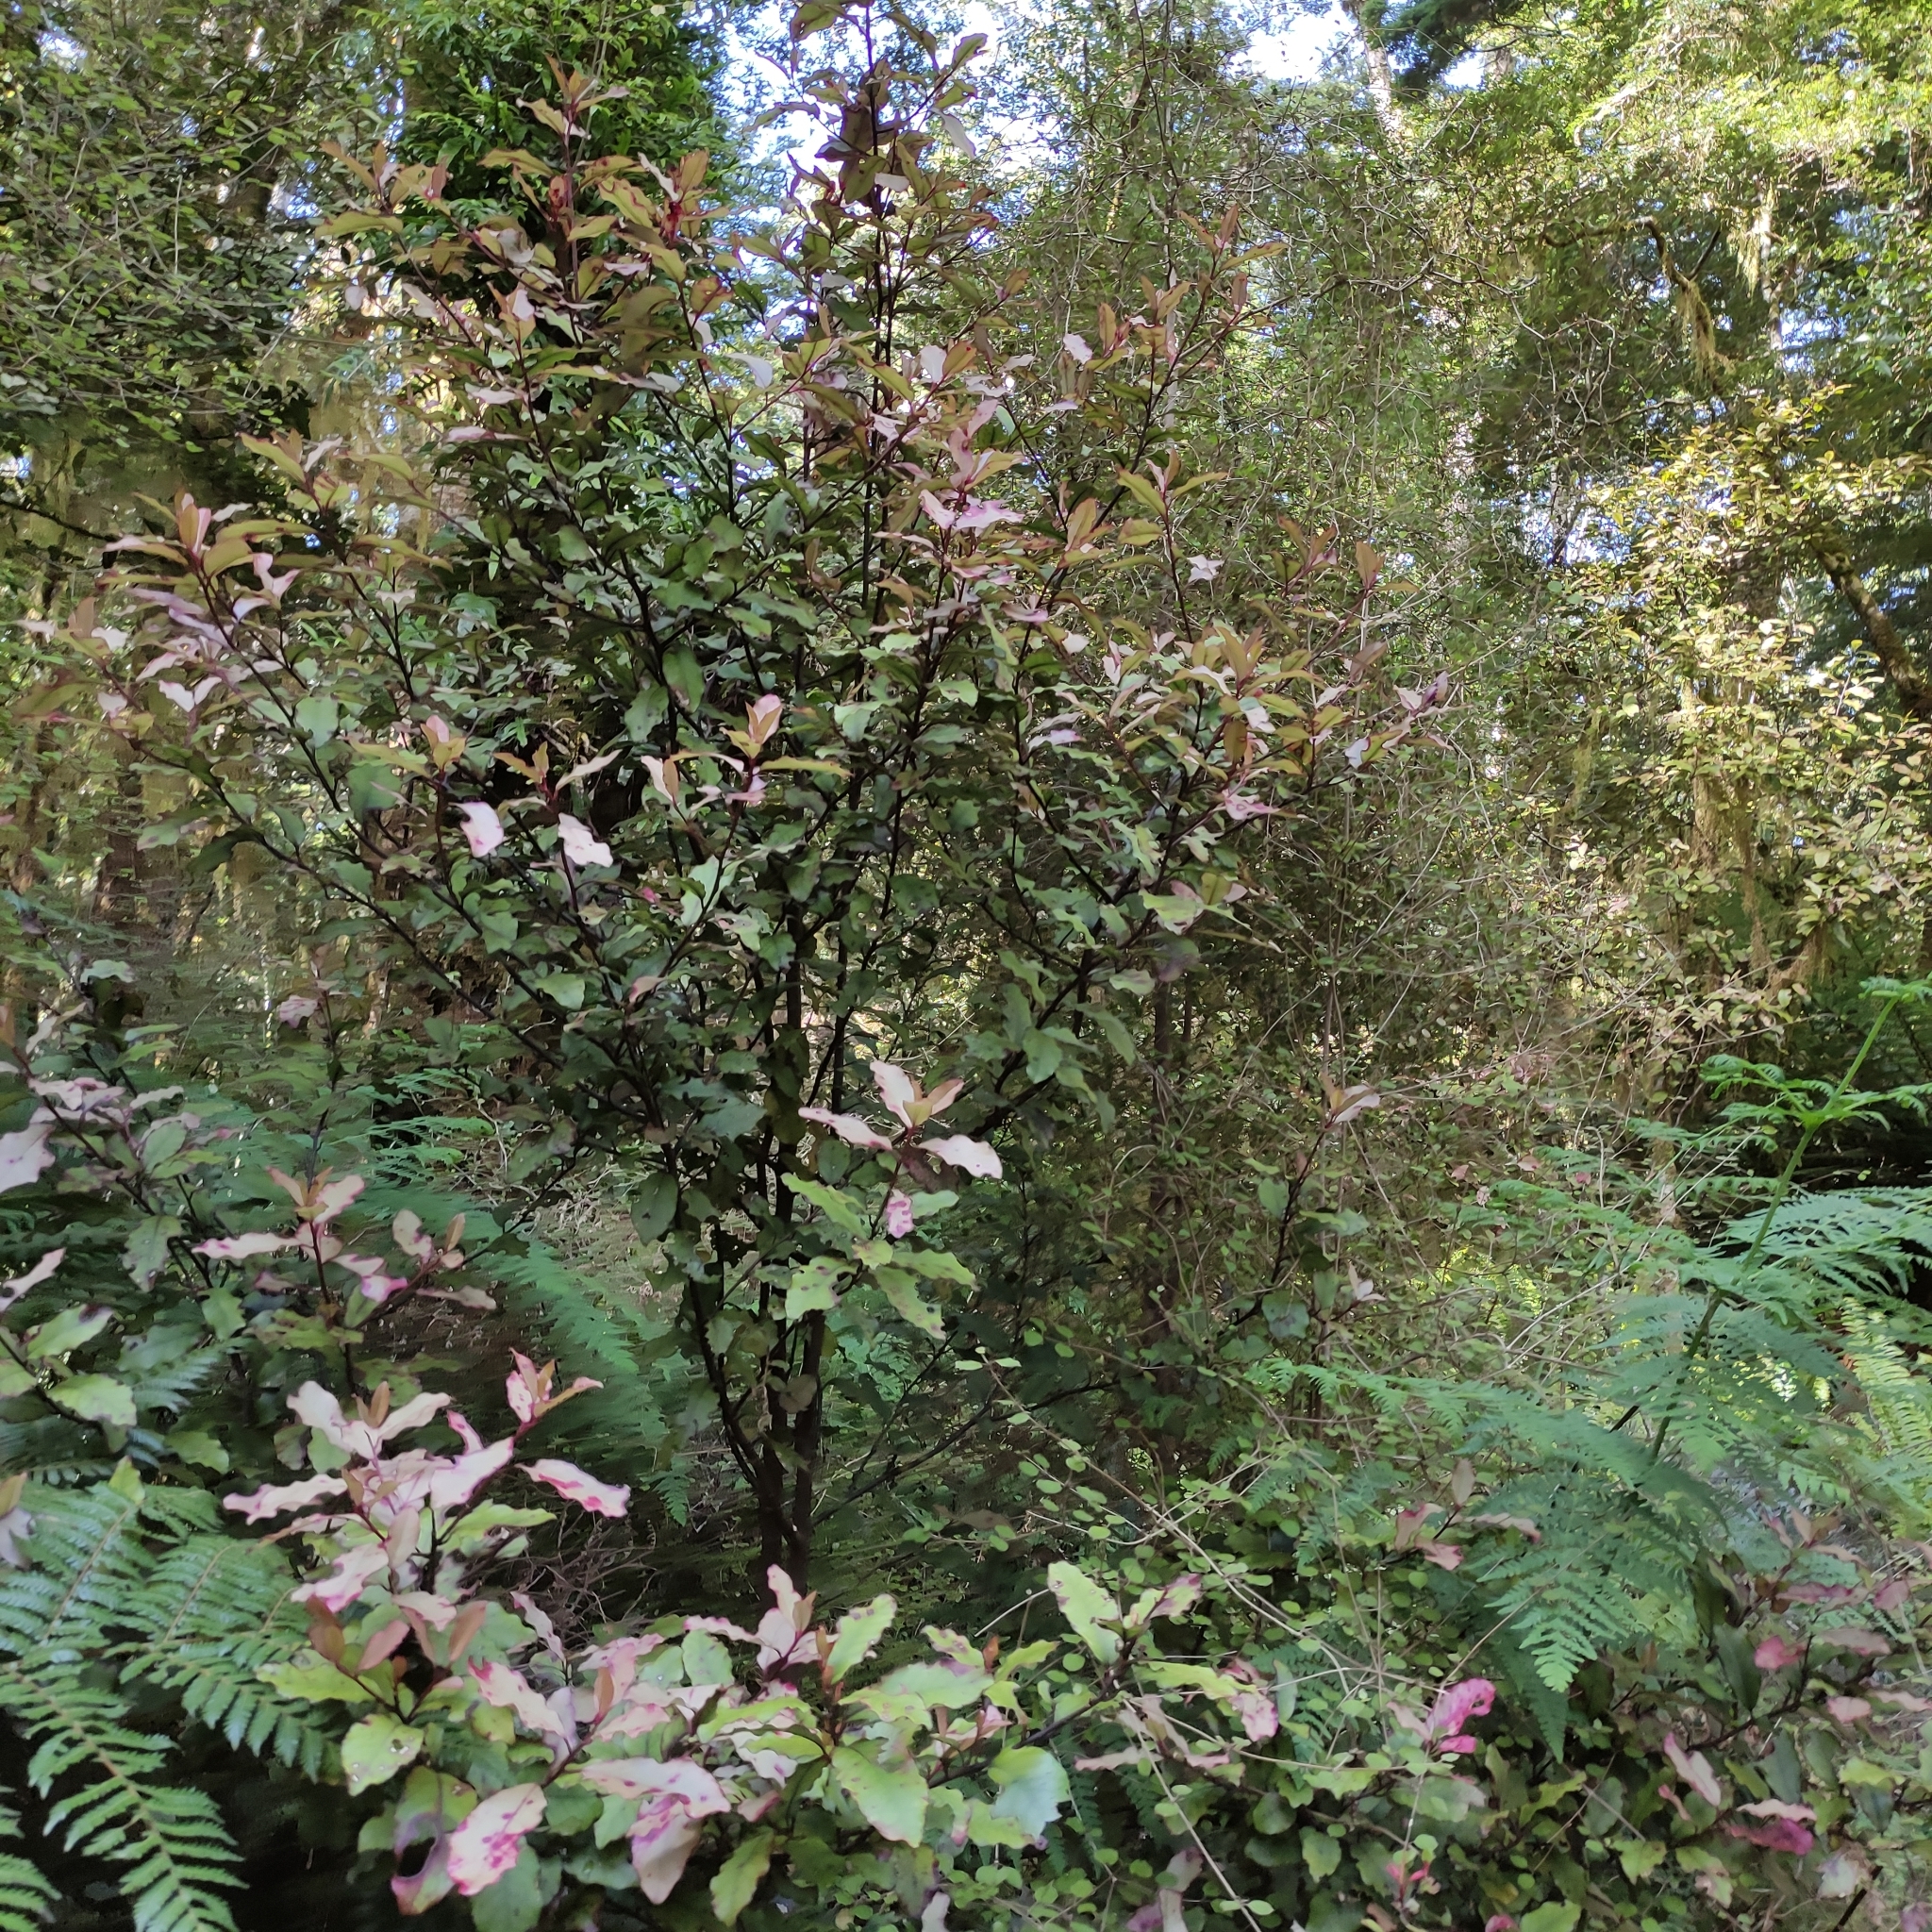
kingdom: Plantae
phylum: Tracheophyta
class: Magnoliopsida
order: Canellales
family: Winteraceae
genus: Pseudowintera
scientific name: Pseudowintera colorata
